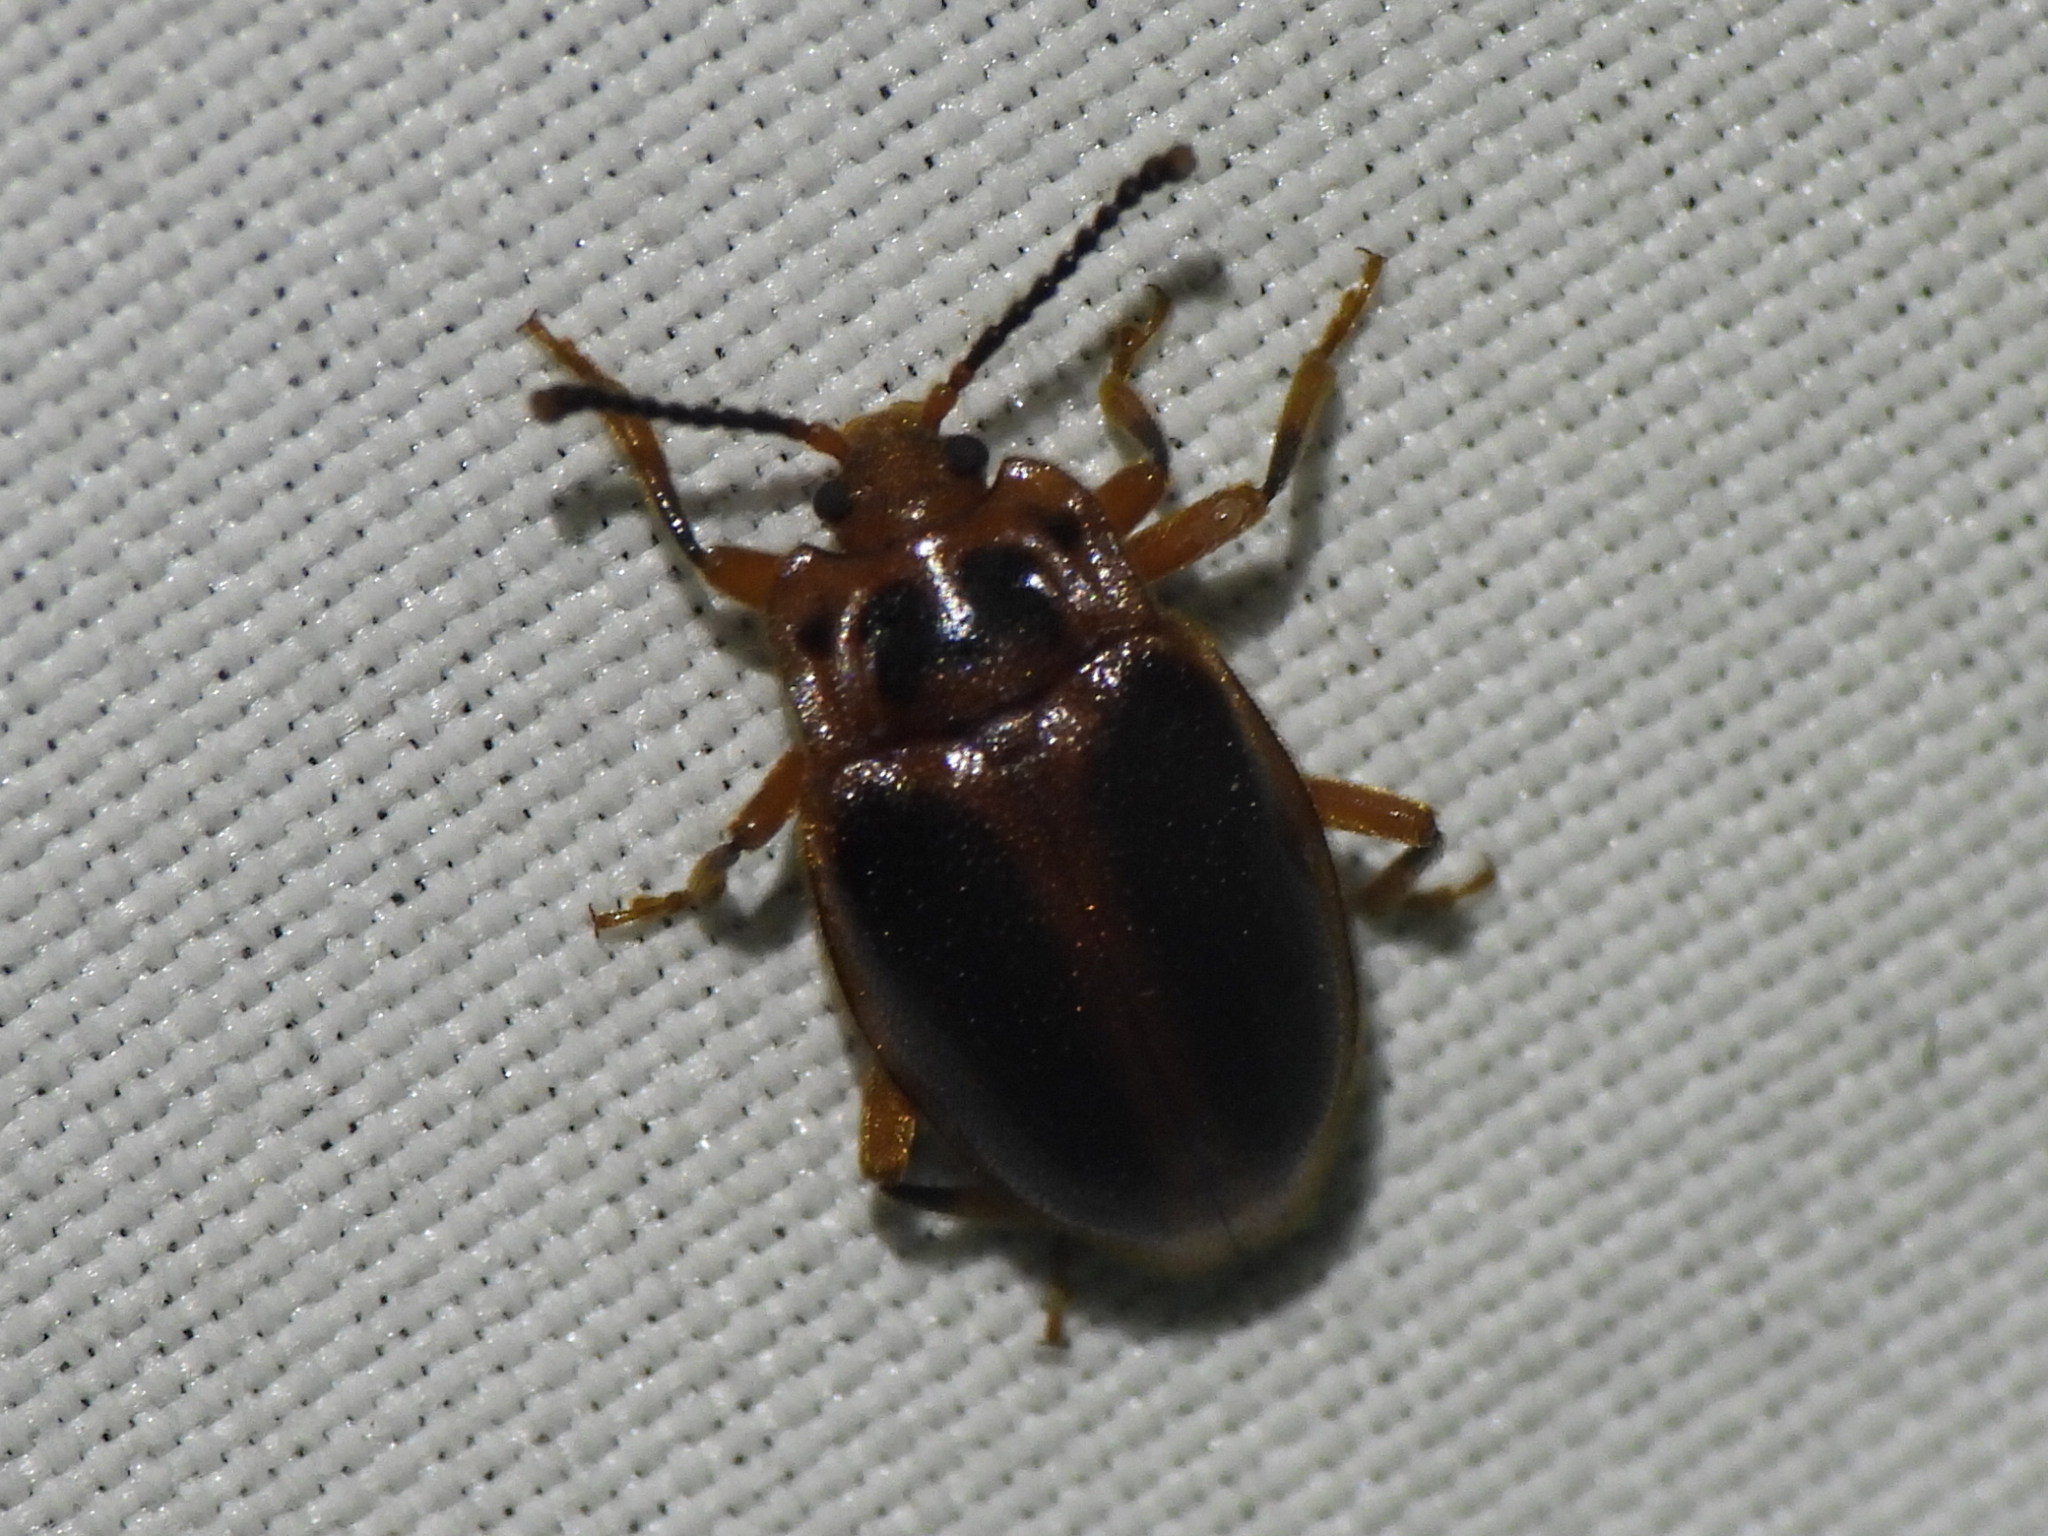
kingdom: Animalia
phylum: Arthropoda
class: Insecta
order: Coleoptera
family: Endomychidae
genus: Epipocus
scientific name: Epipocus cinctus
